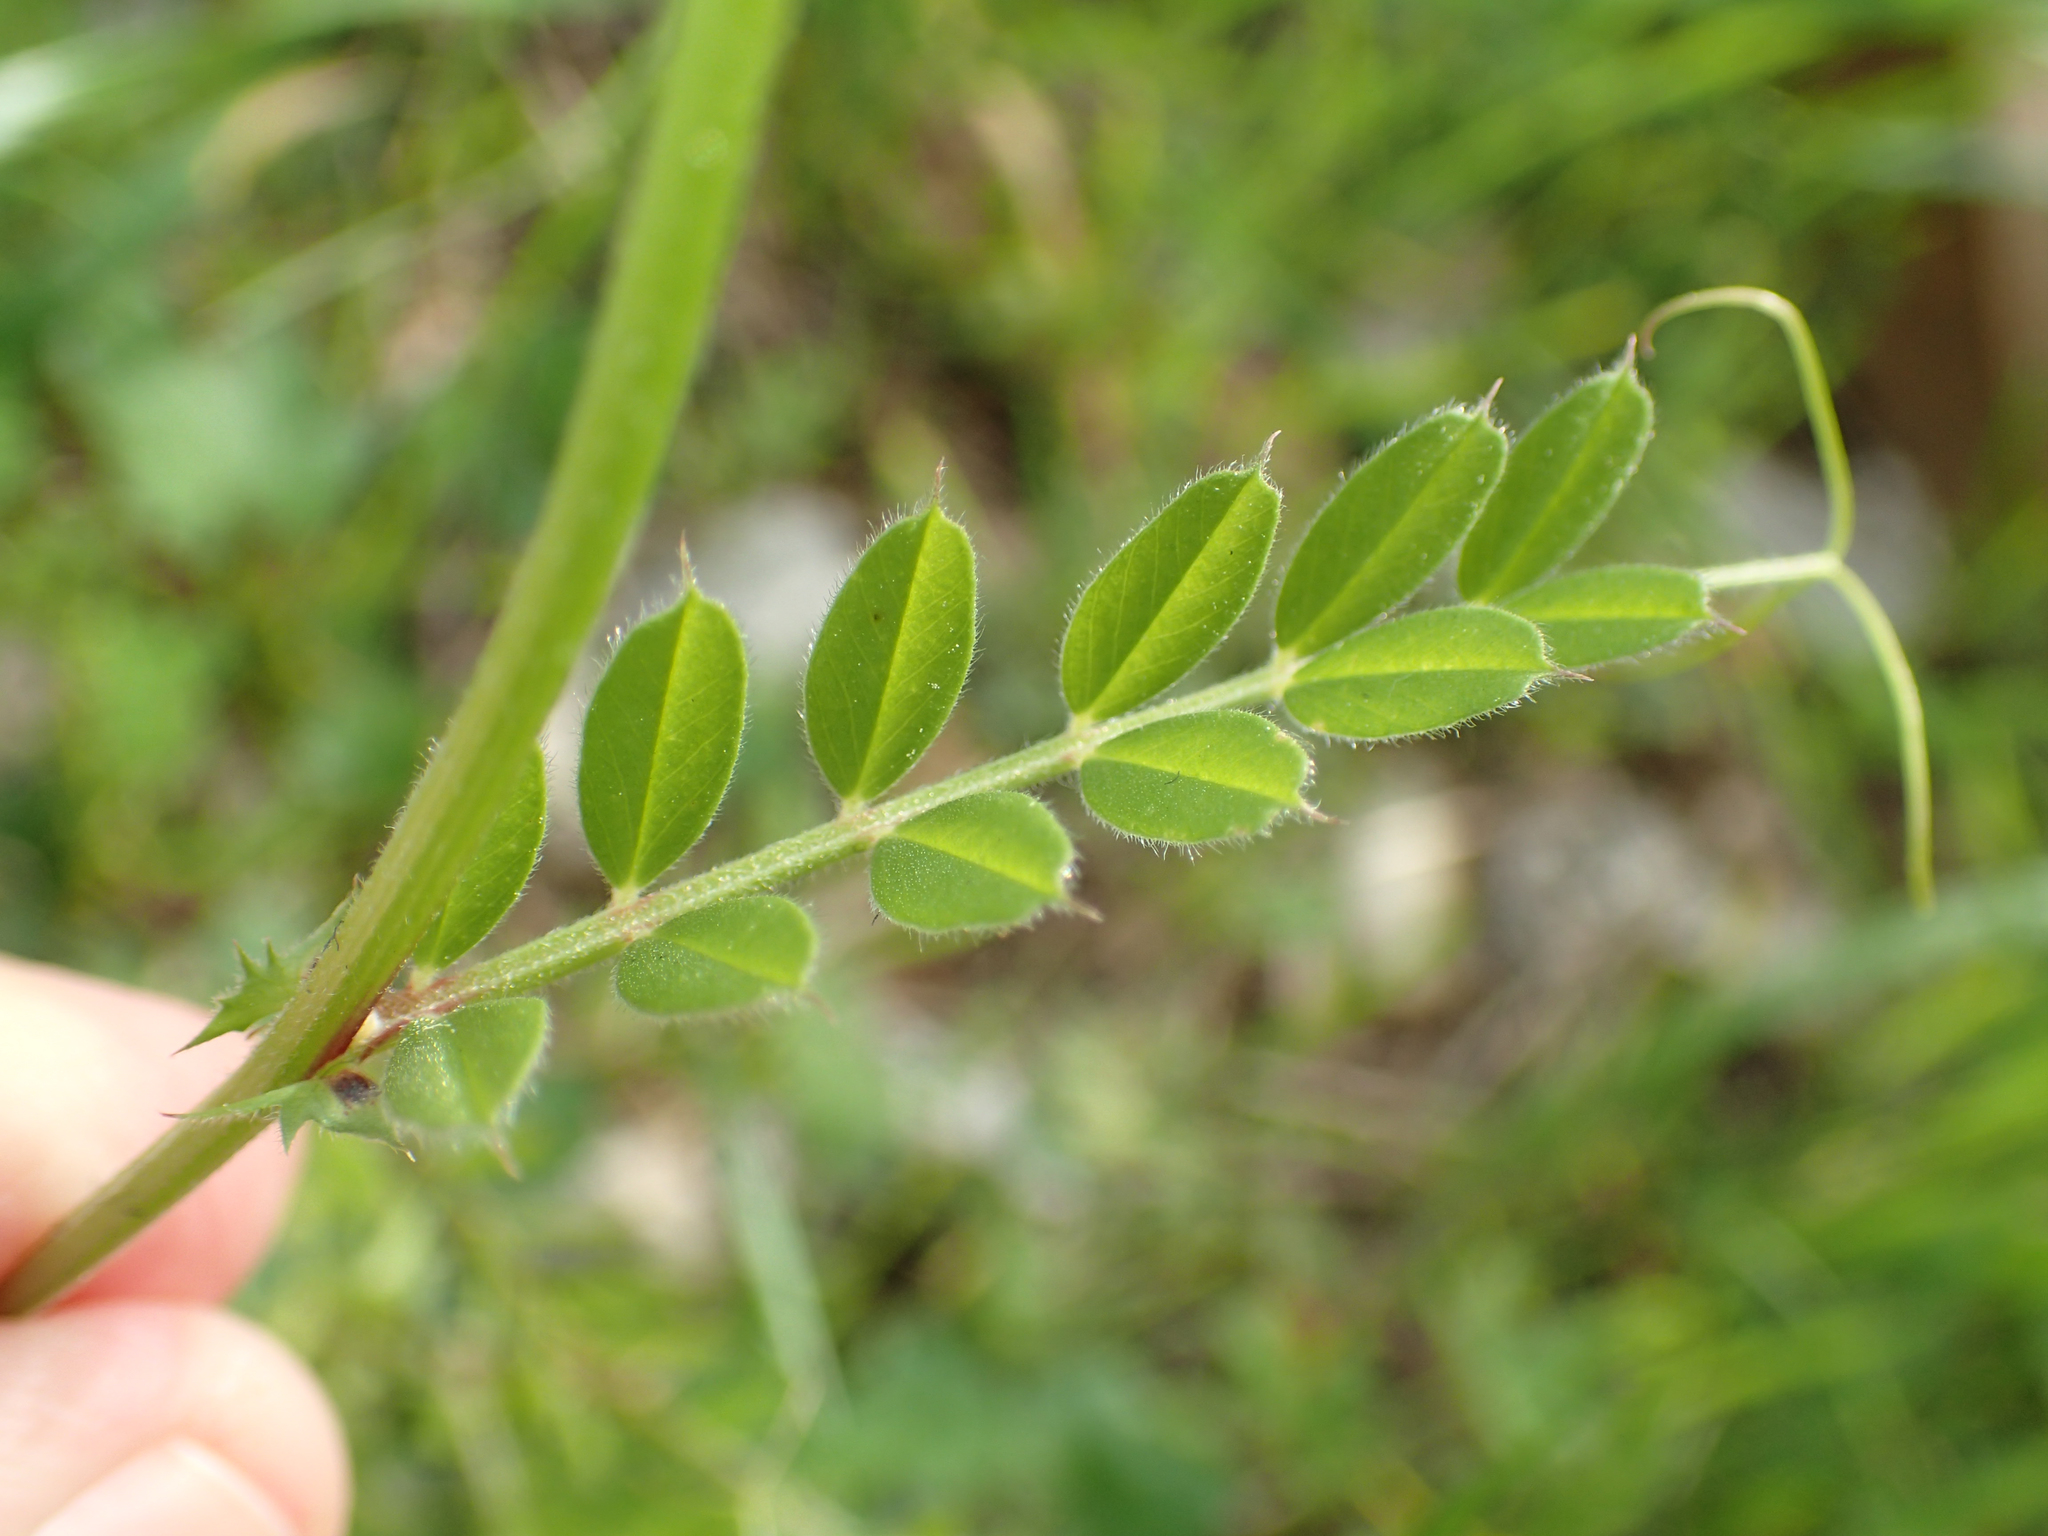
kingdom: Plantae
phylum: Tracheophyta
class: Magnoliopsida
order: Fabales
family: Fabaceae
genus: Vicia
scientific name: Vicia sativa
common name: Garden vetch
